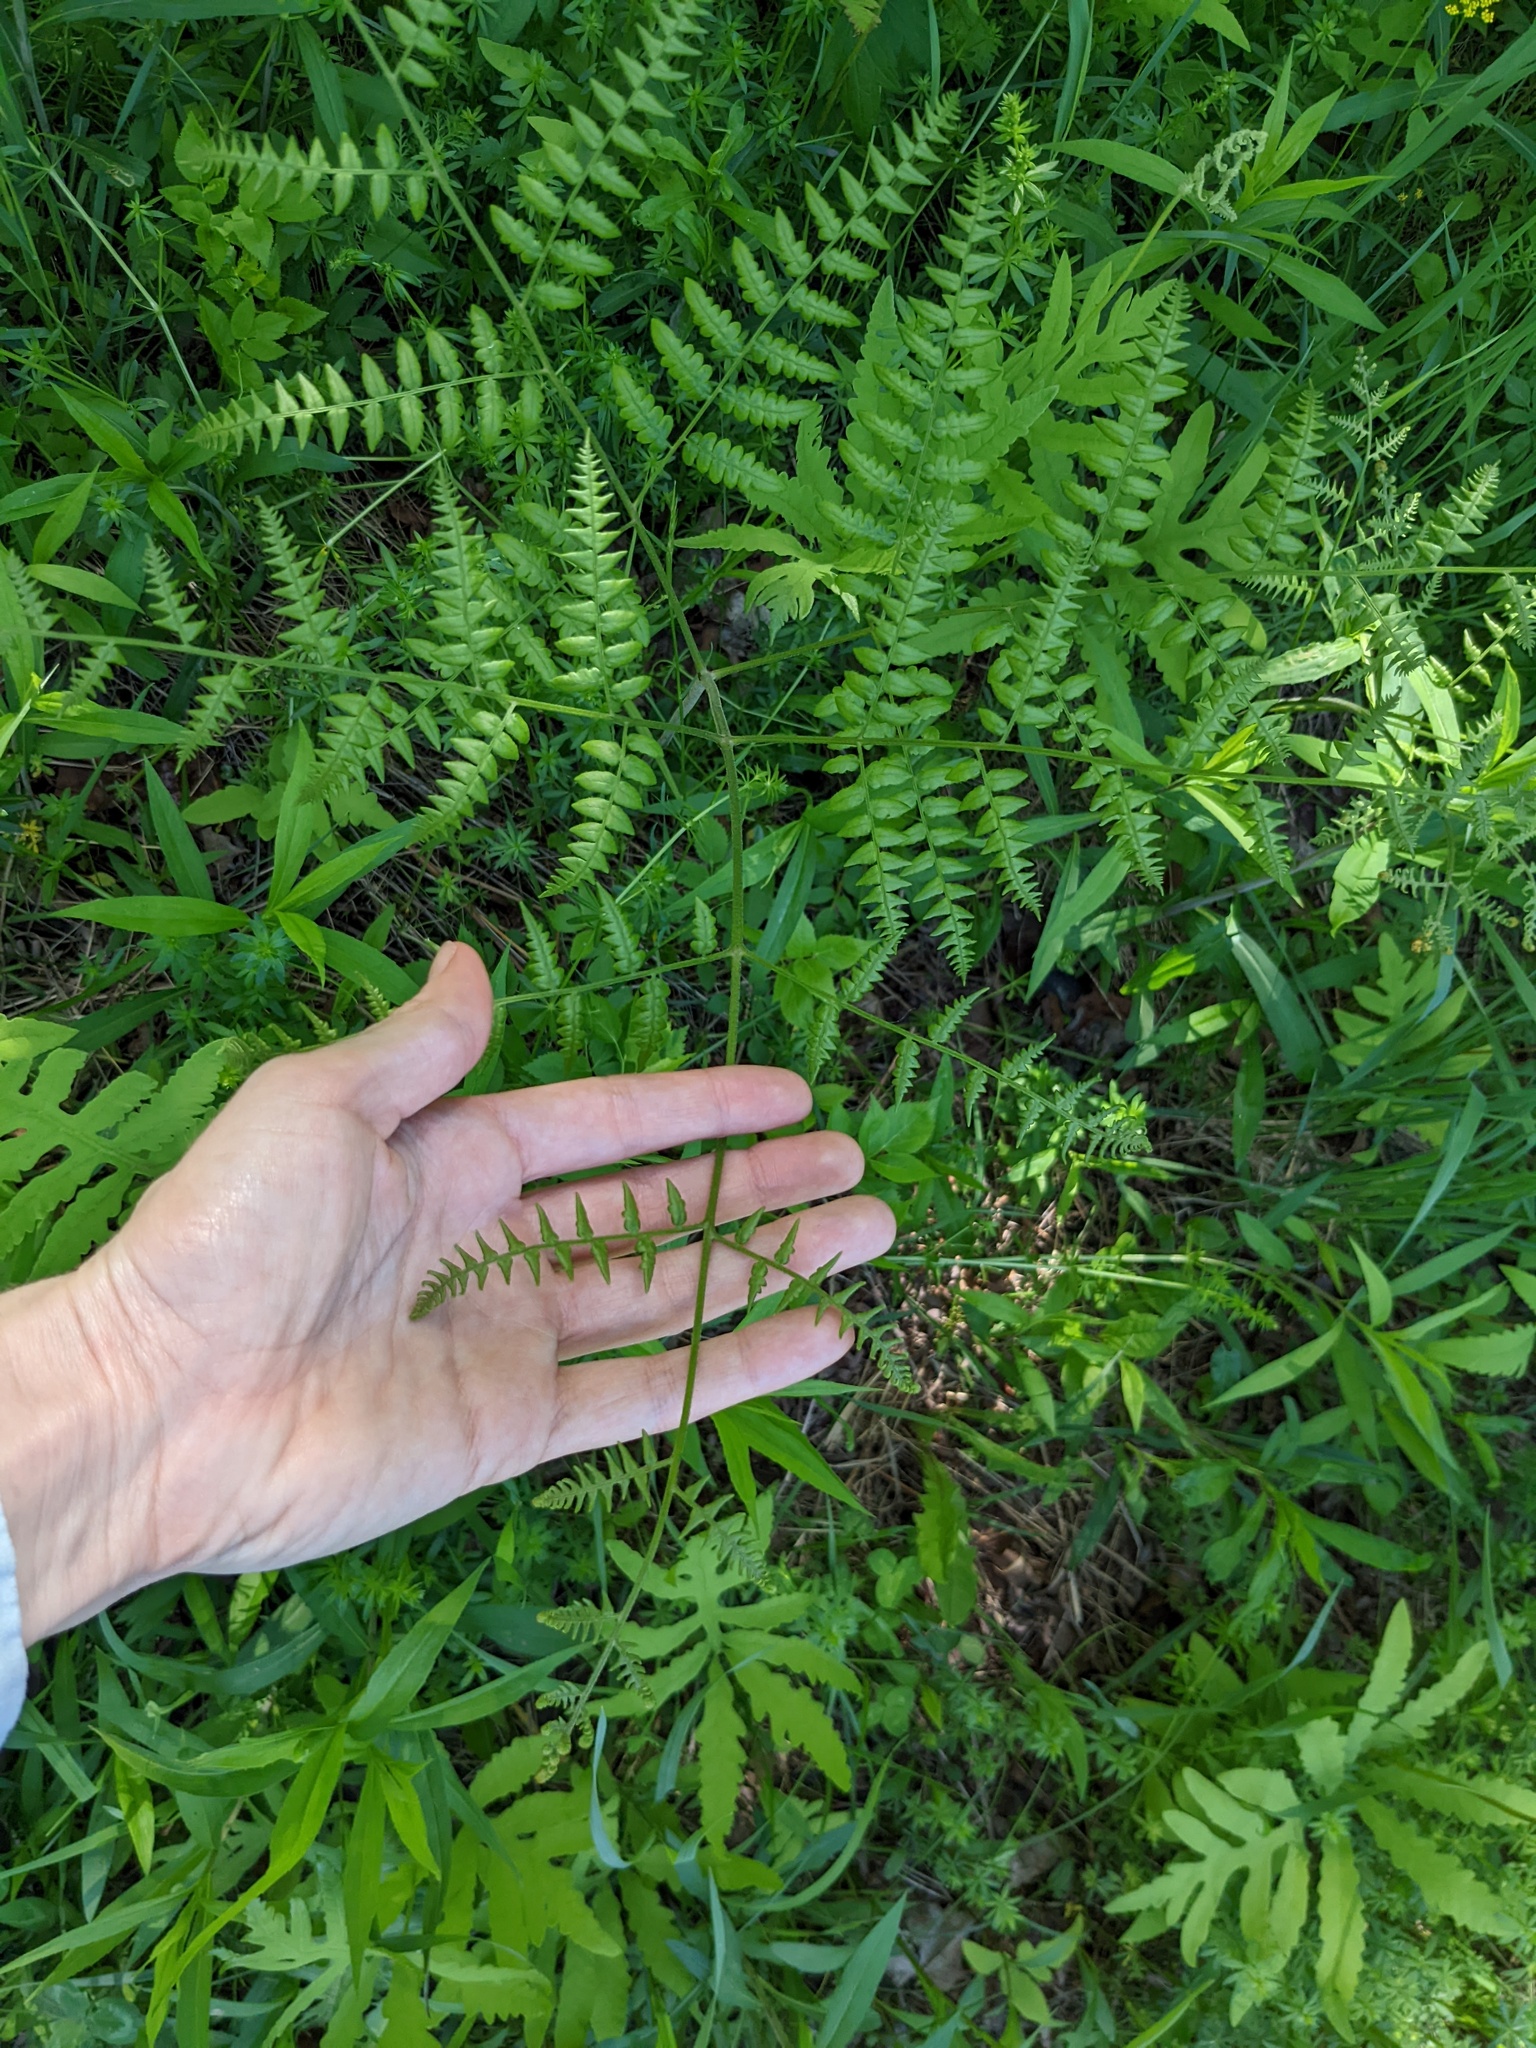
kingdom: Plantae
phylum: Tracheophyta
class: Polypodiopsida
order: Polypodiales
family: Dennstaedtiaceae
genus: Pteridium
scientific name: Pteridium aquilinum
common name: Bracken
